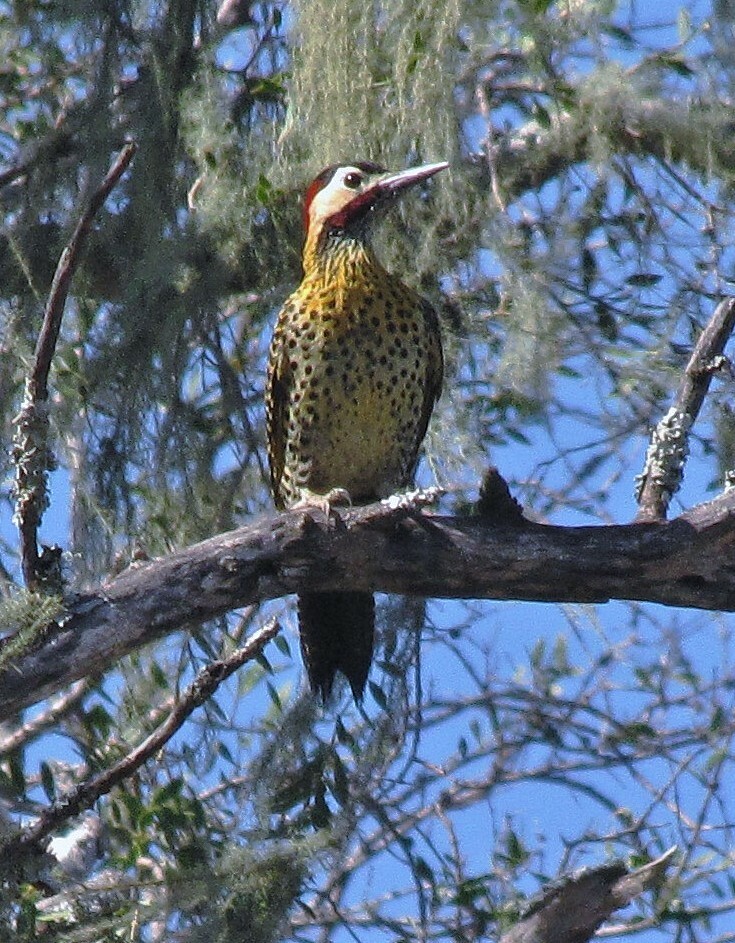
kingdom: Animalia
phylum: Chordata
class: Aves
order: Piciformes
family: Picidae
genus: Colaptes
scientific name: Colaptes melanochloros
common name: Green-barred woodpecker
